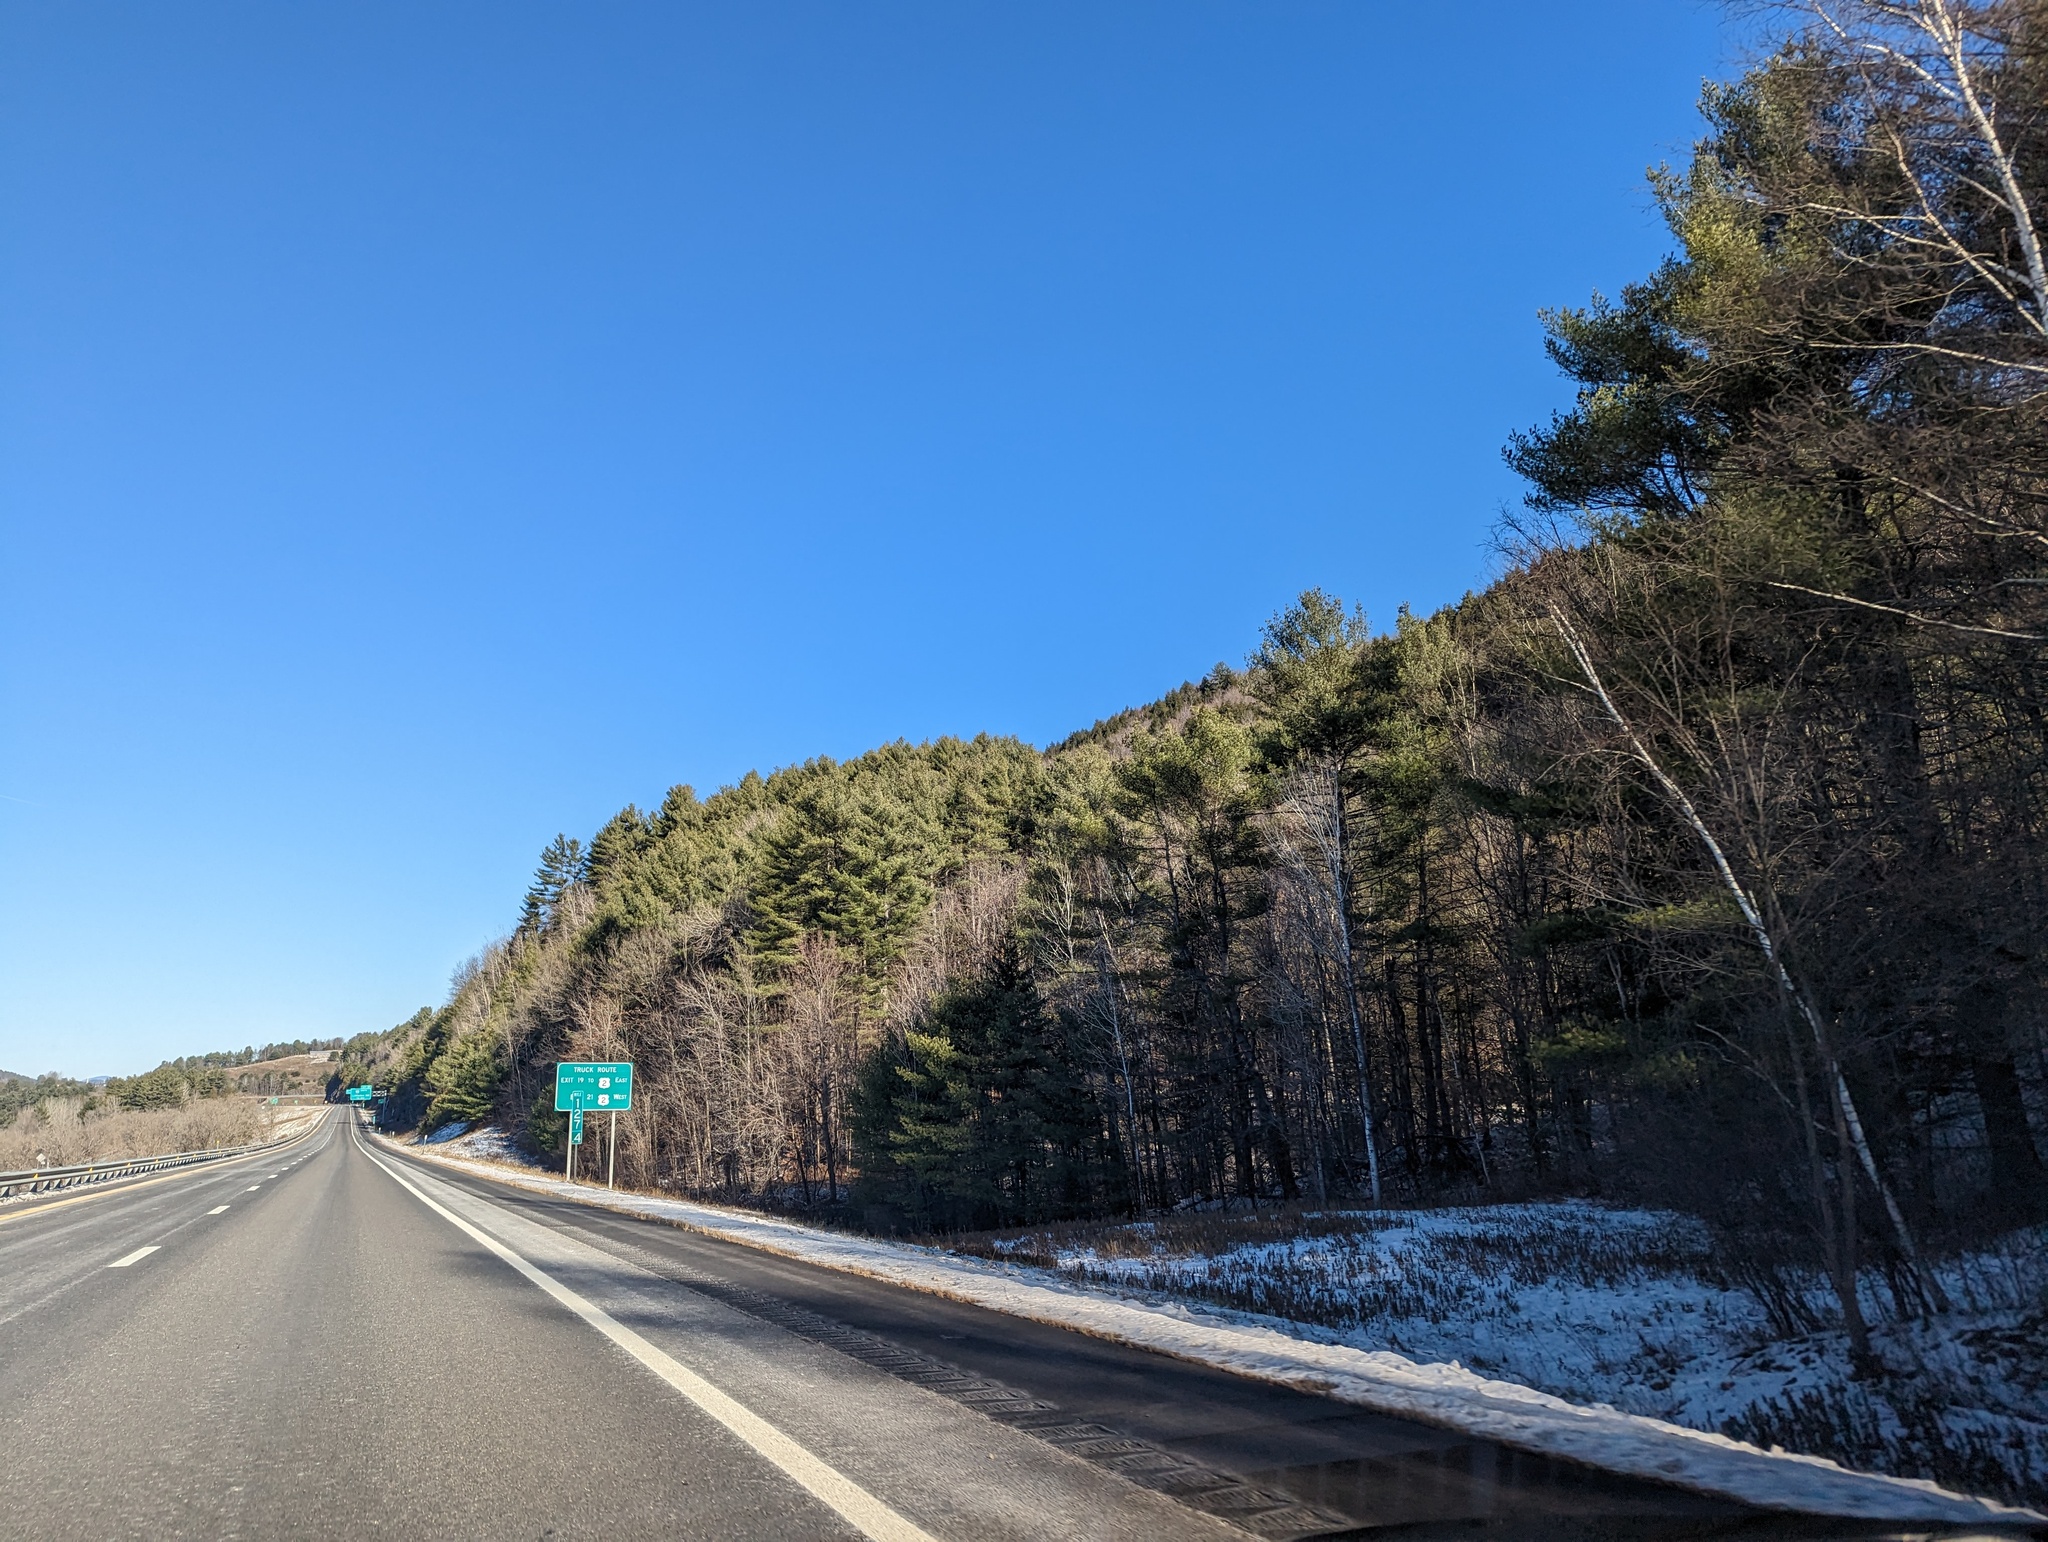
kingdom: Plantae
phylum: Tracheophyta
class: Pinopsida
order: Pinales
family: Pinaceae
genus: Pinus
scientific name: Pinus strobus
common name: Weymouth pine
